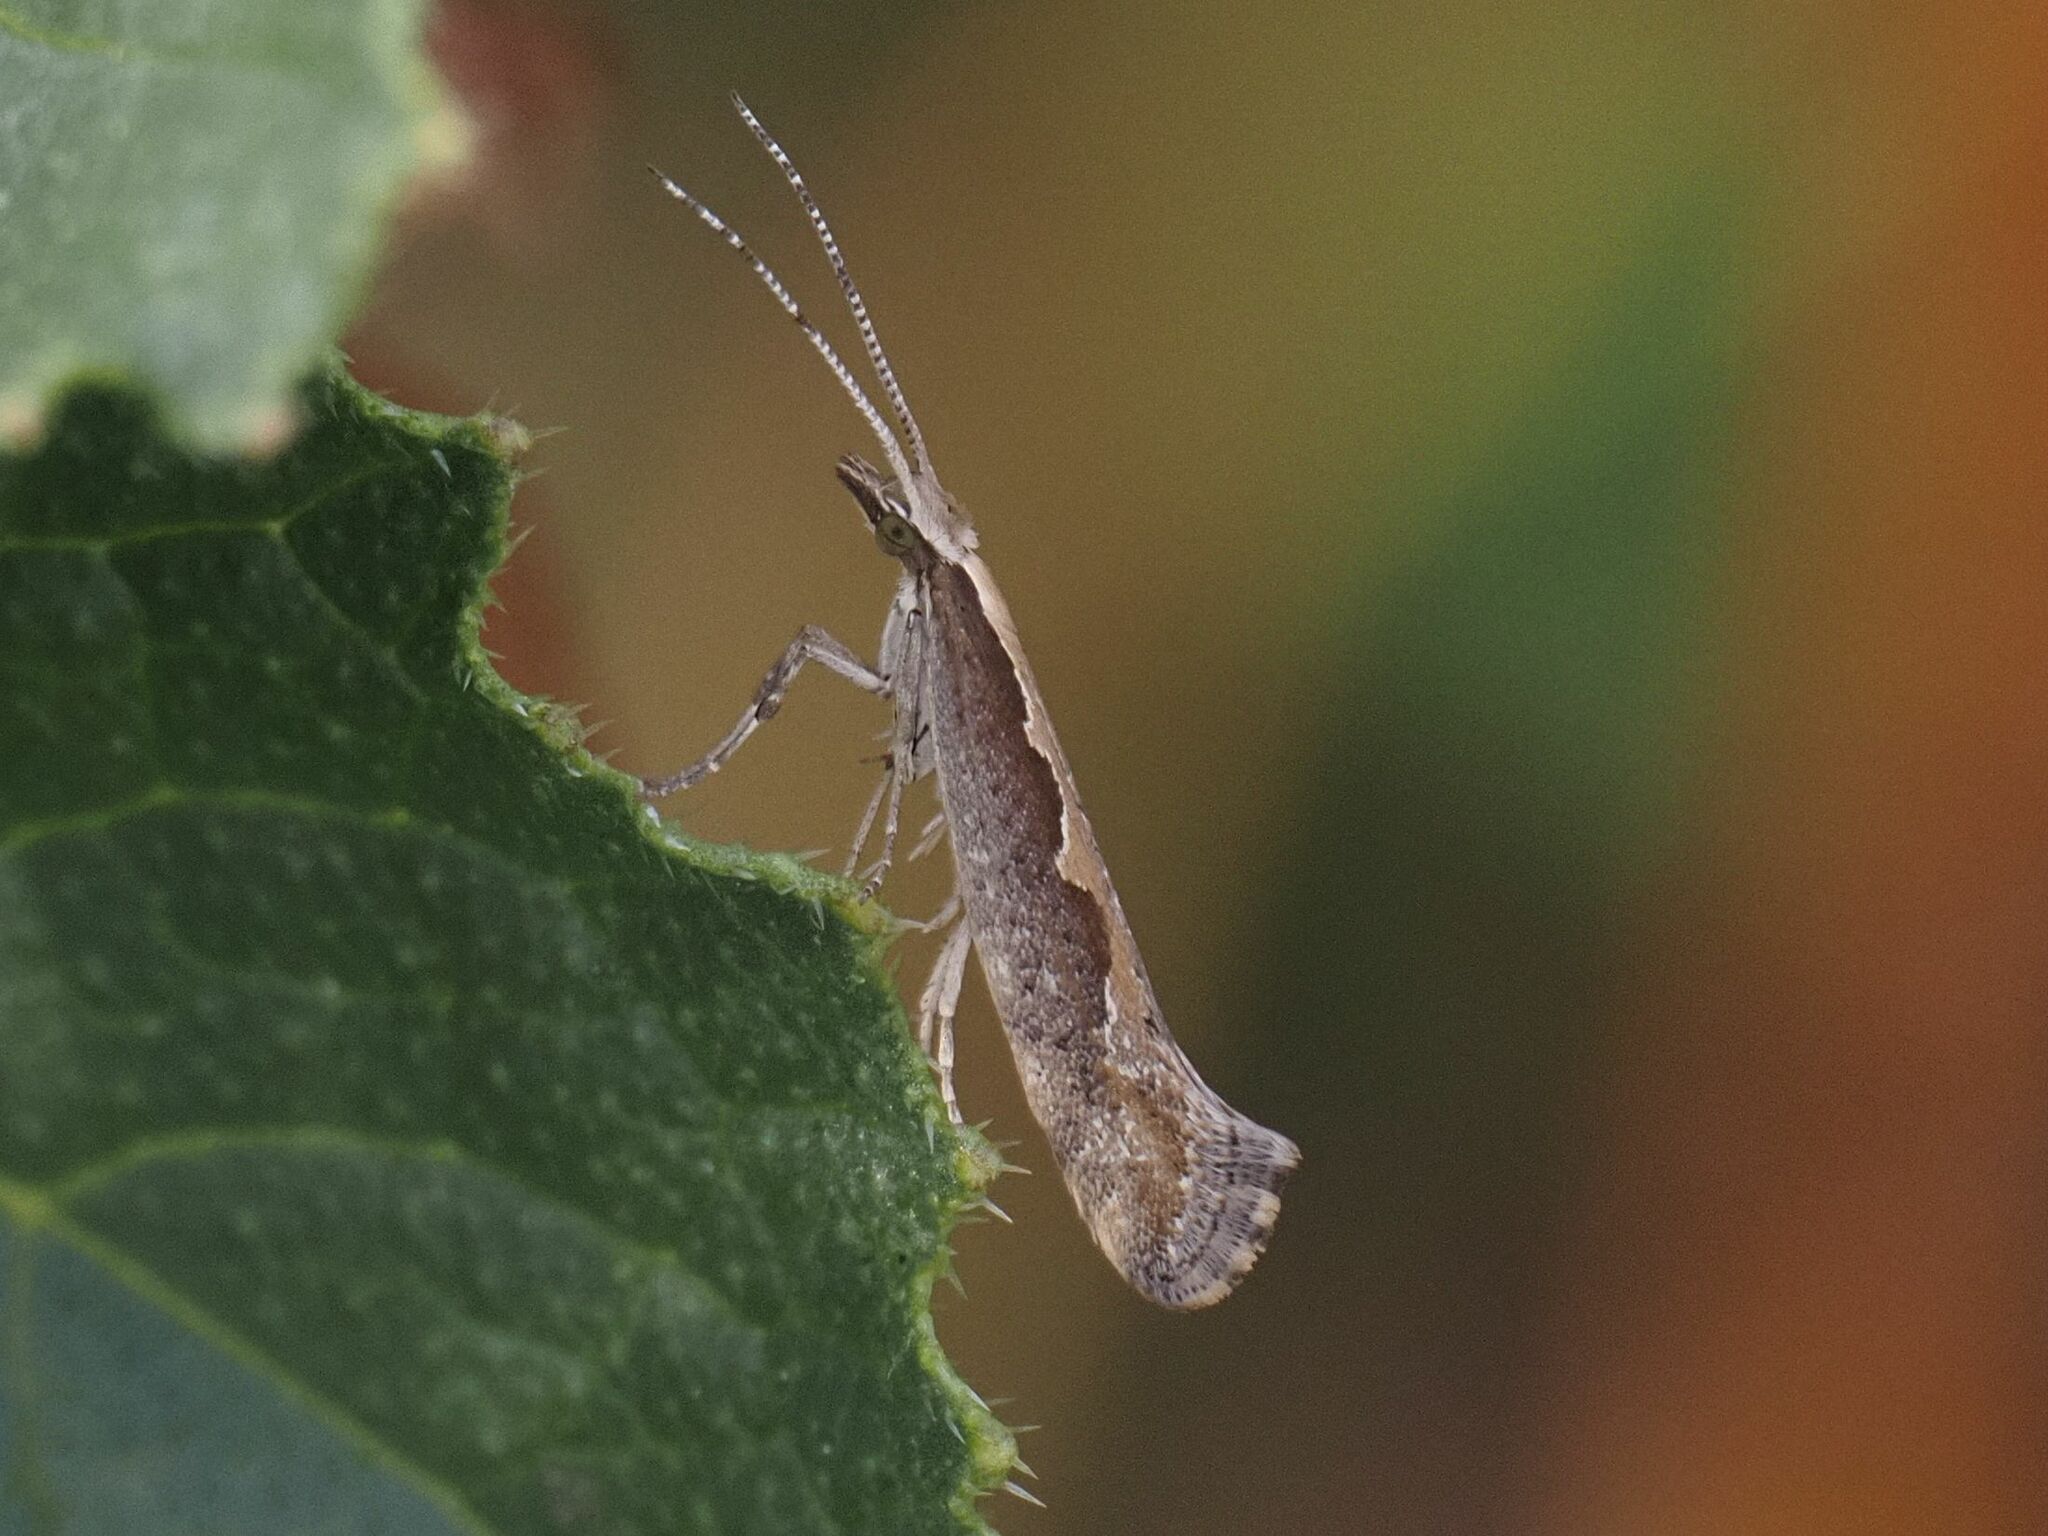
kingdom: Animalia
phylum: Arthropoda
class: Insecta
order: Lepidoptera
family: Plutellidae
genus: Plutella
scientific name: Plutella xylostella
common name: Diamond-back moth
